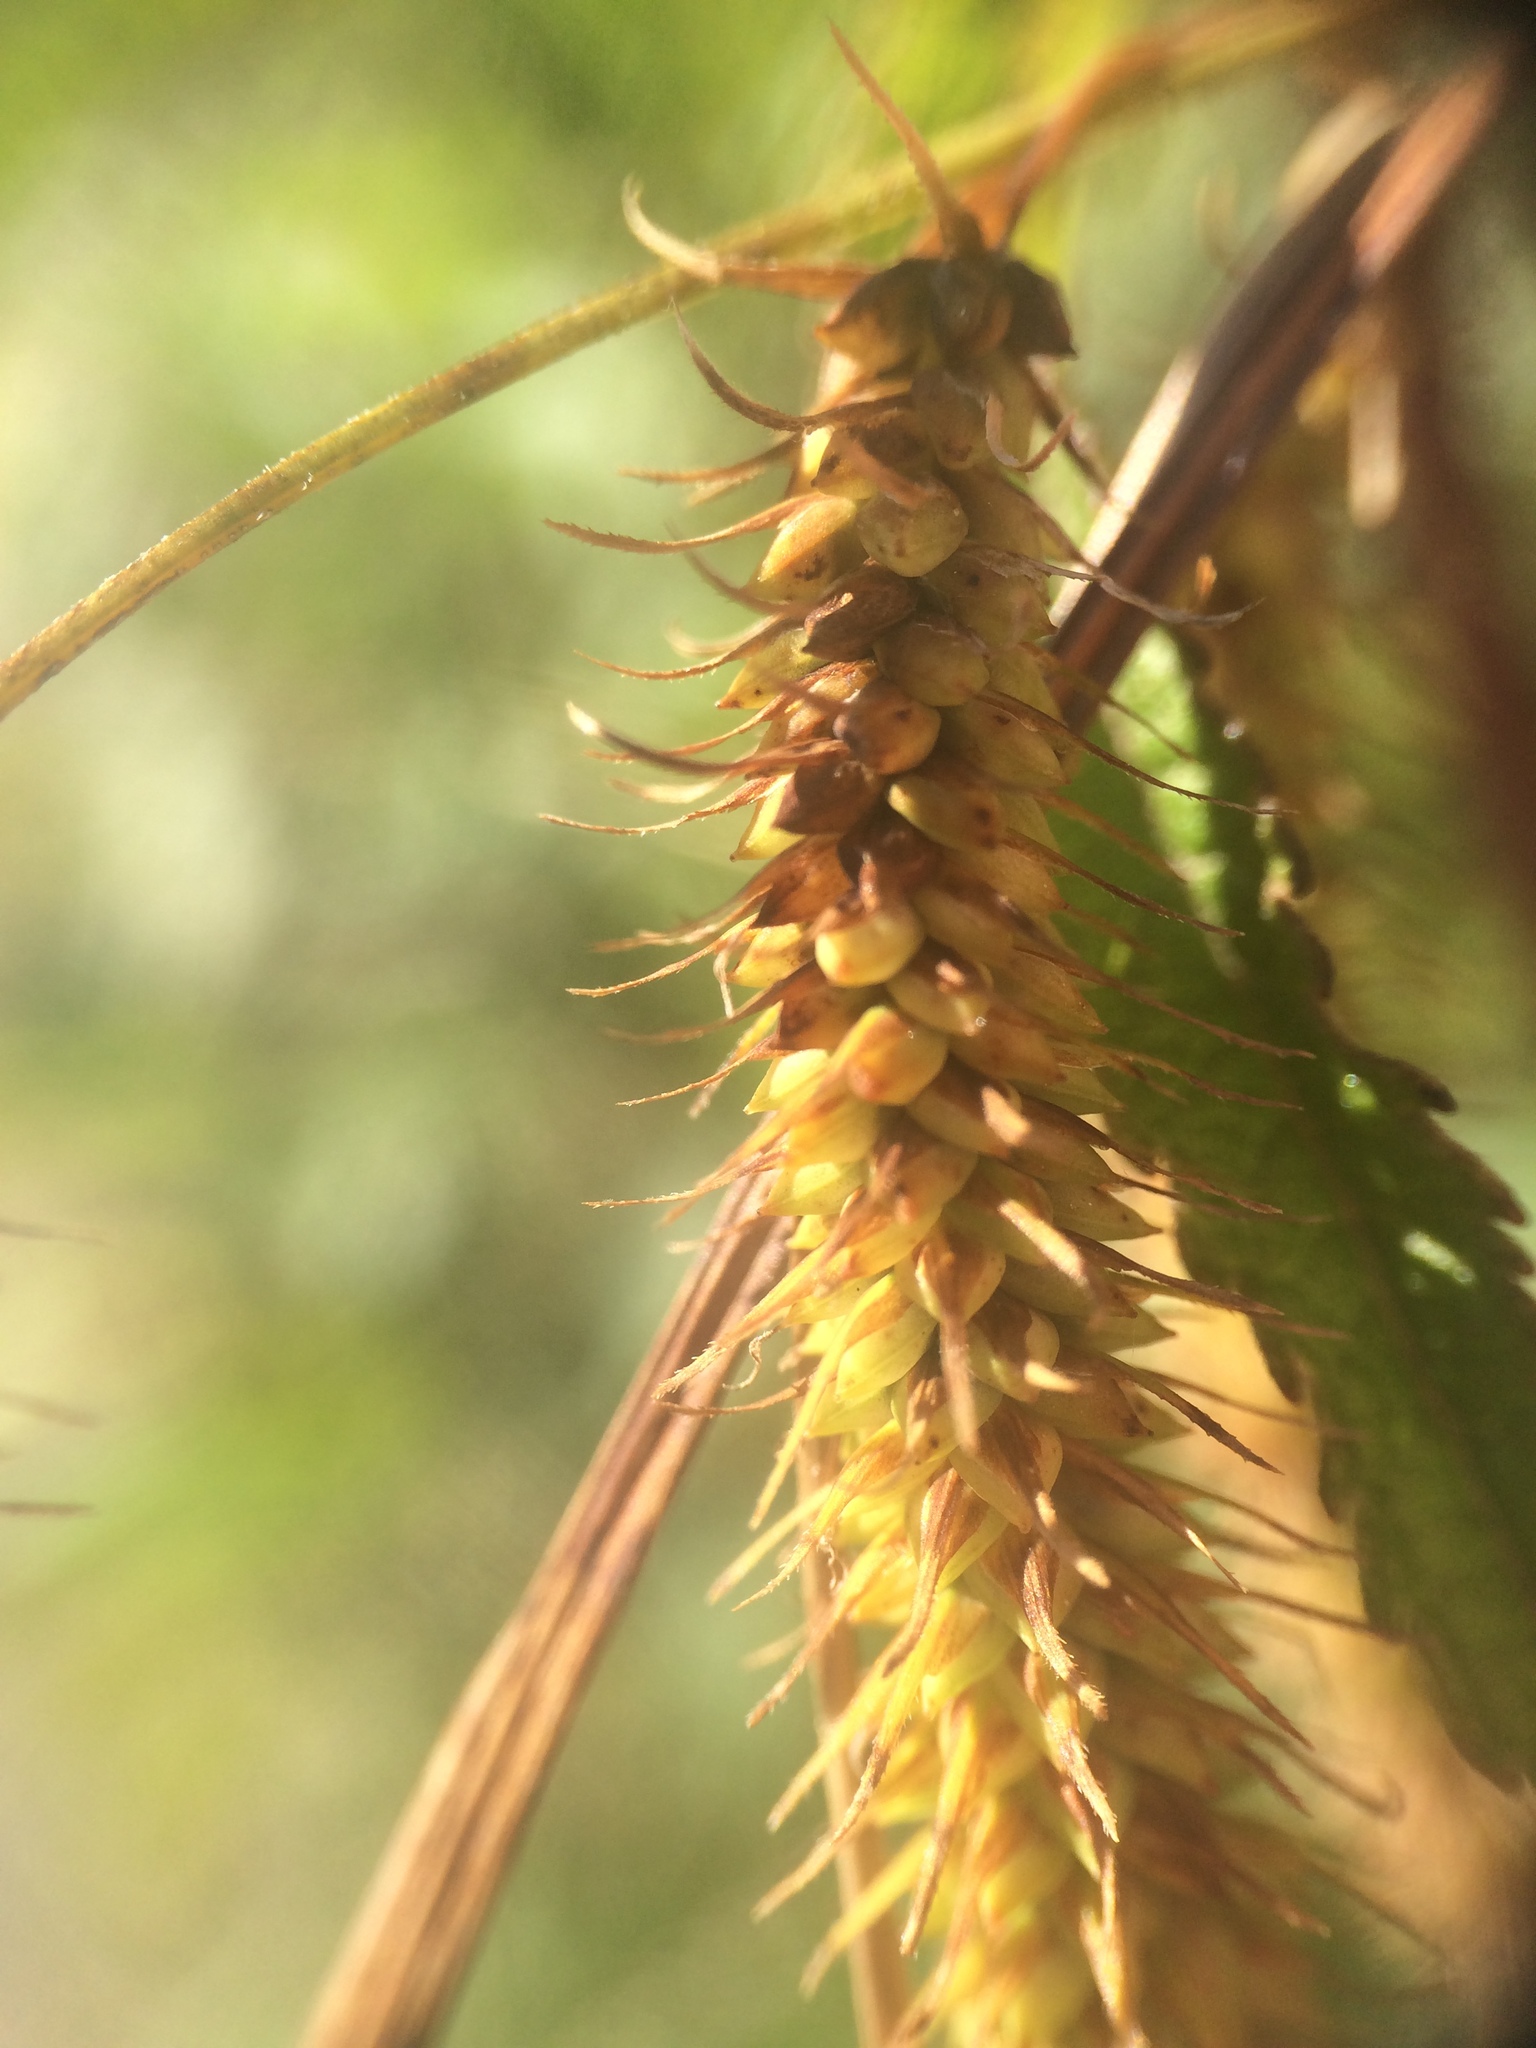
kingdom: Plantae
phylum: Tracheophyta
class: Liliopsida
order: Poales
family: Cyperaceae
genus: Carex
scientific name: Carex gynandra
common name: Nodding sedge
